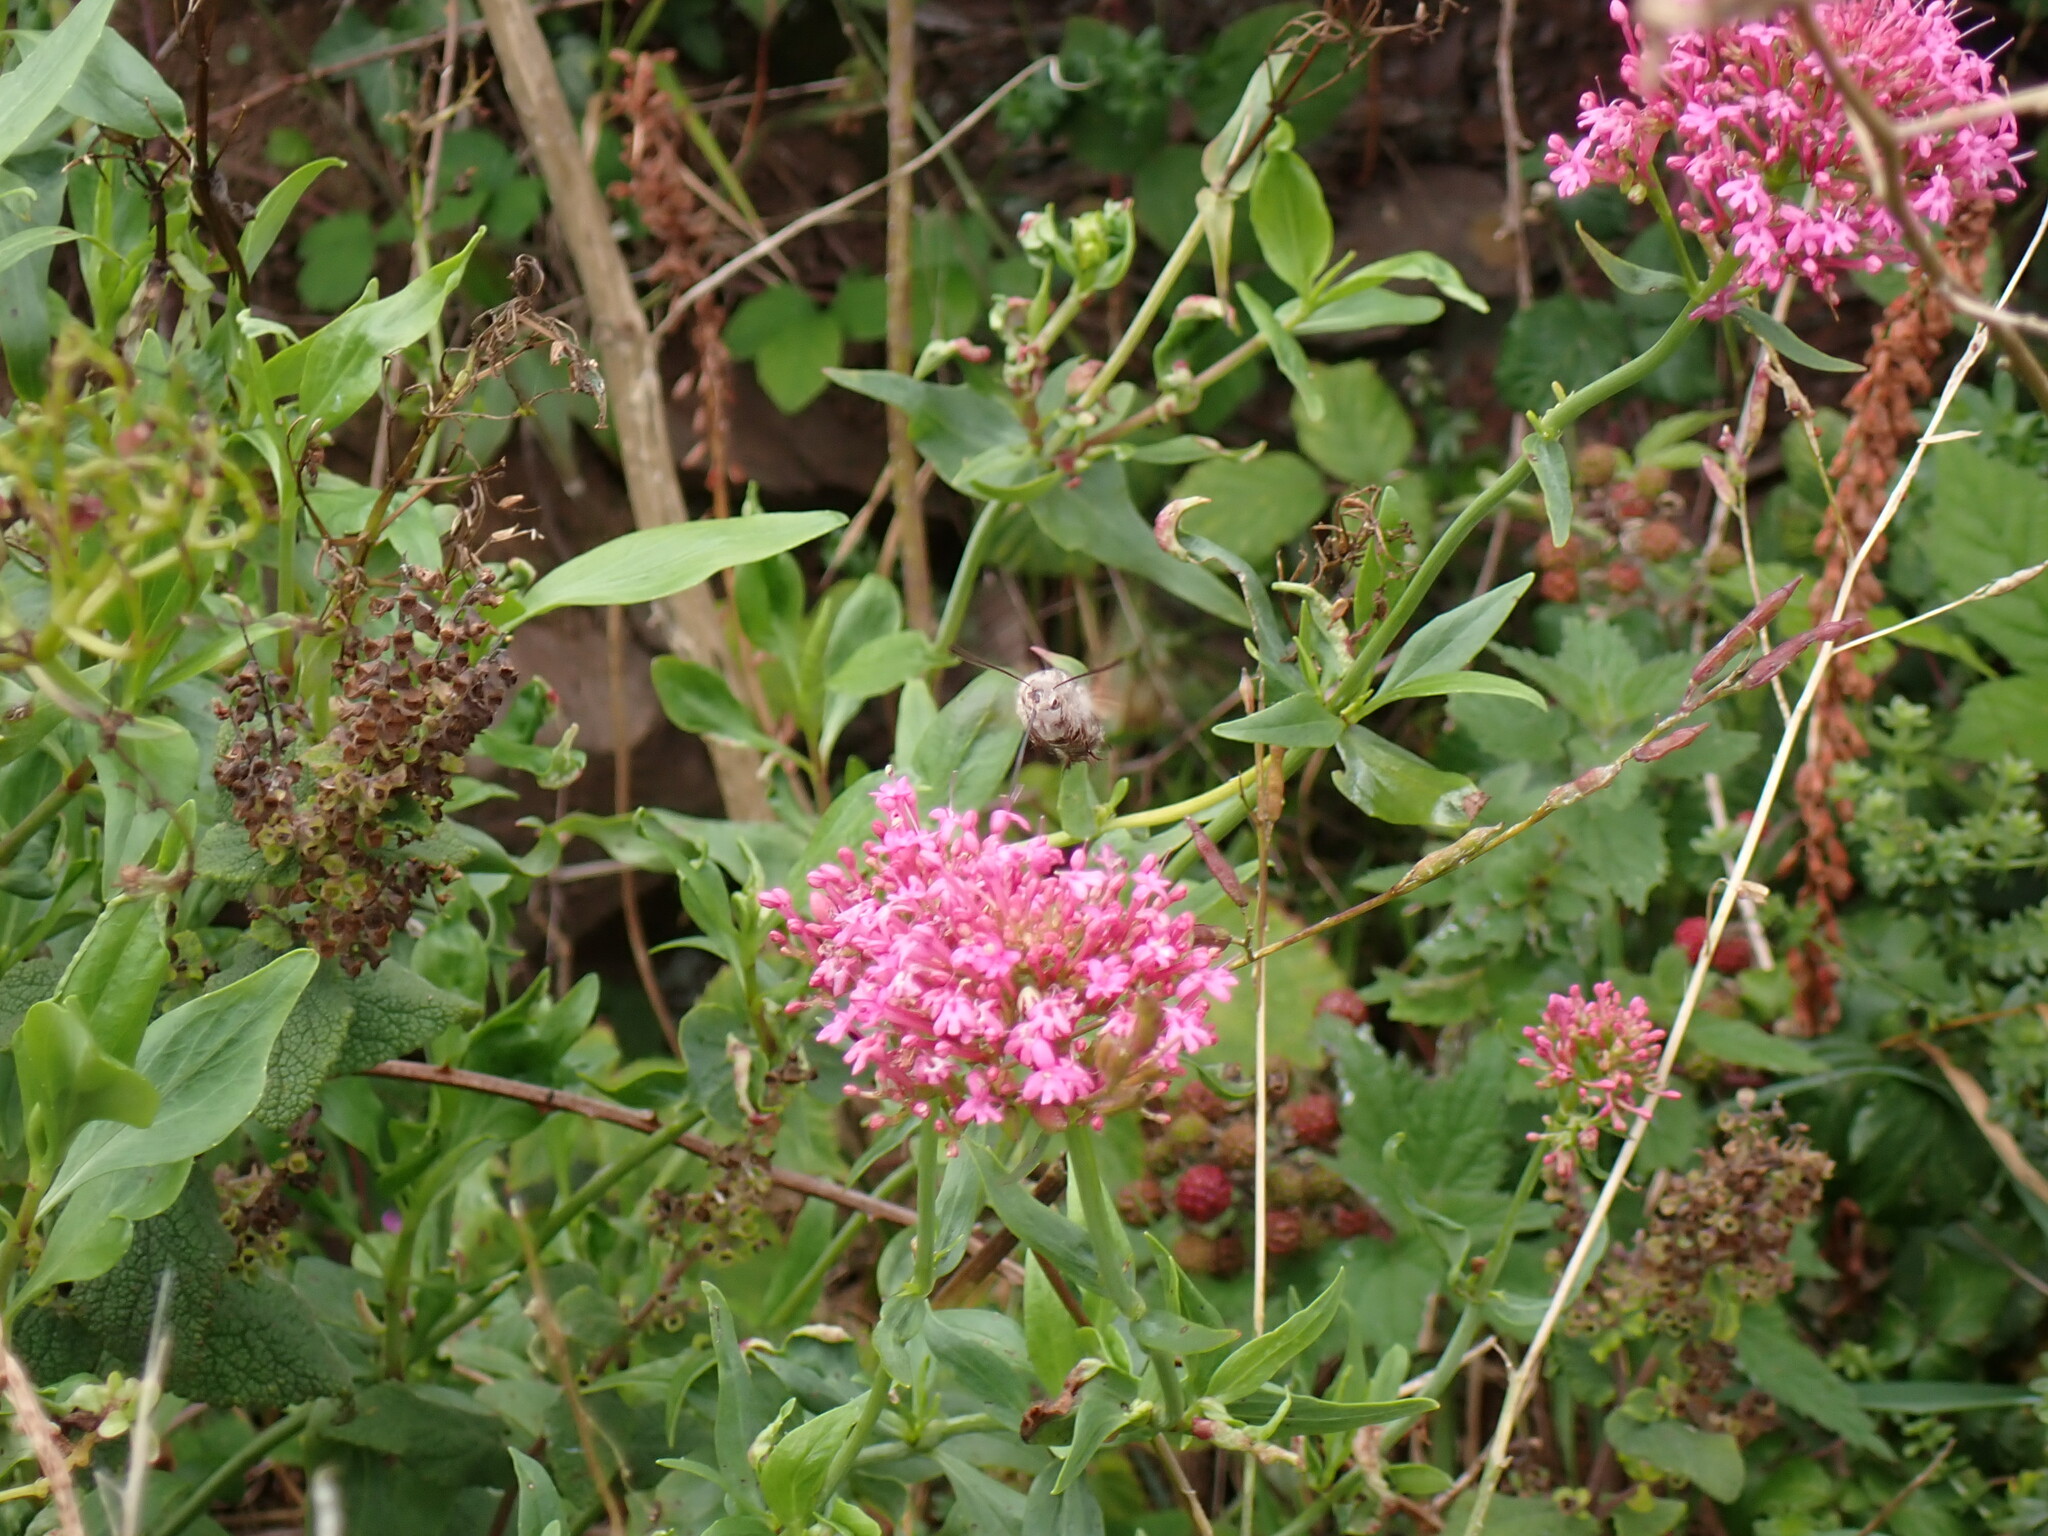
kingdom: Animalia
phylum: Arthropoda
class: Insecta
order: Lepidoptera
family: Sphingidae
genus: Macroglossum
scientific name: Macroglossum stellatarum
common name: Humming-bird hawk-moth
